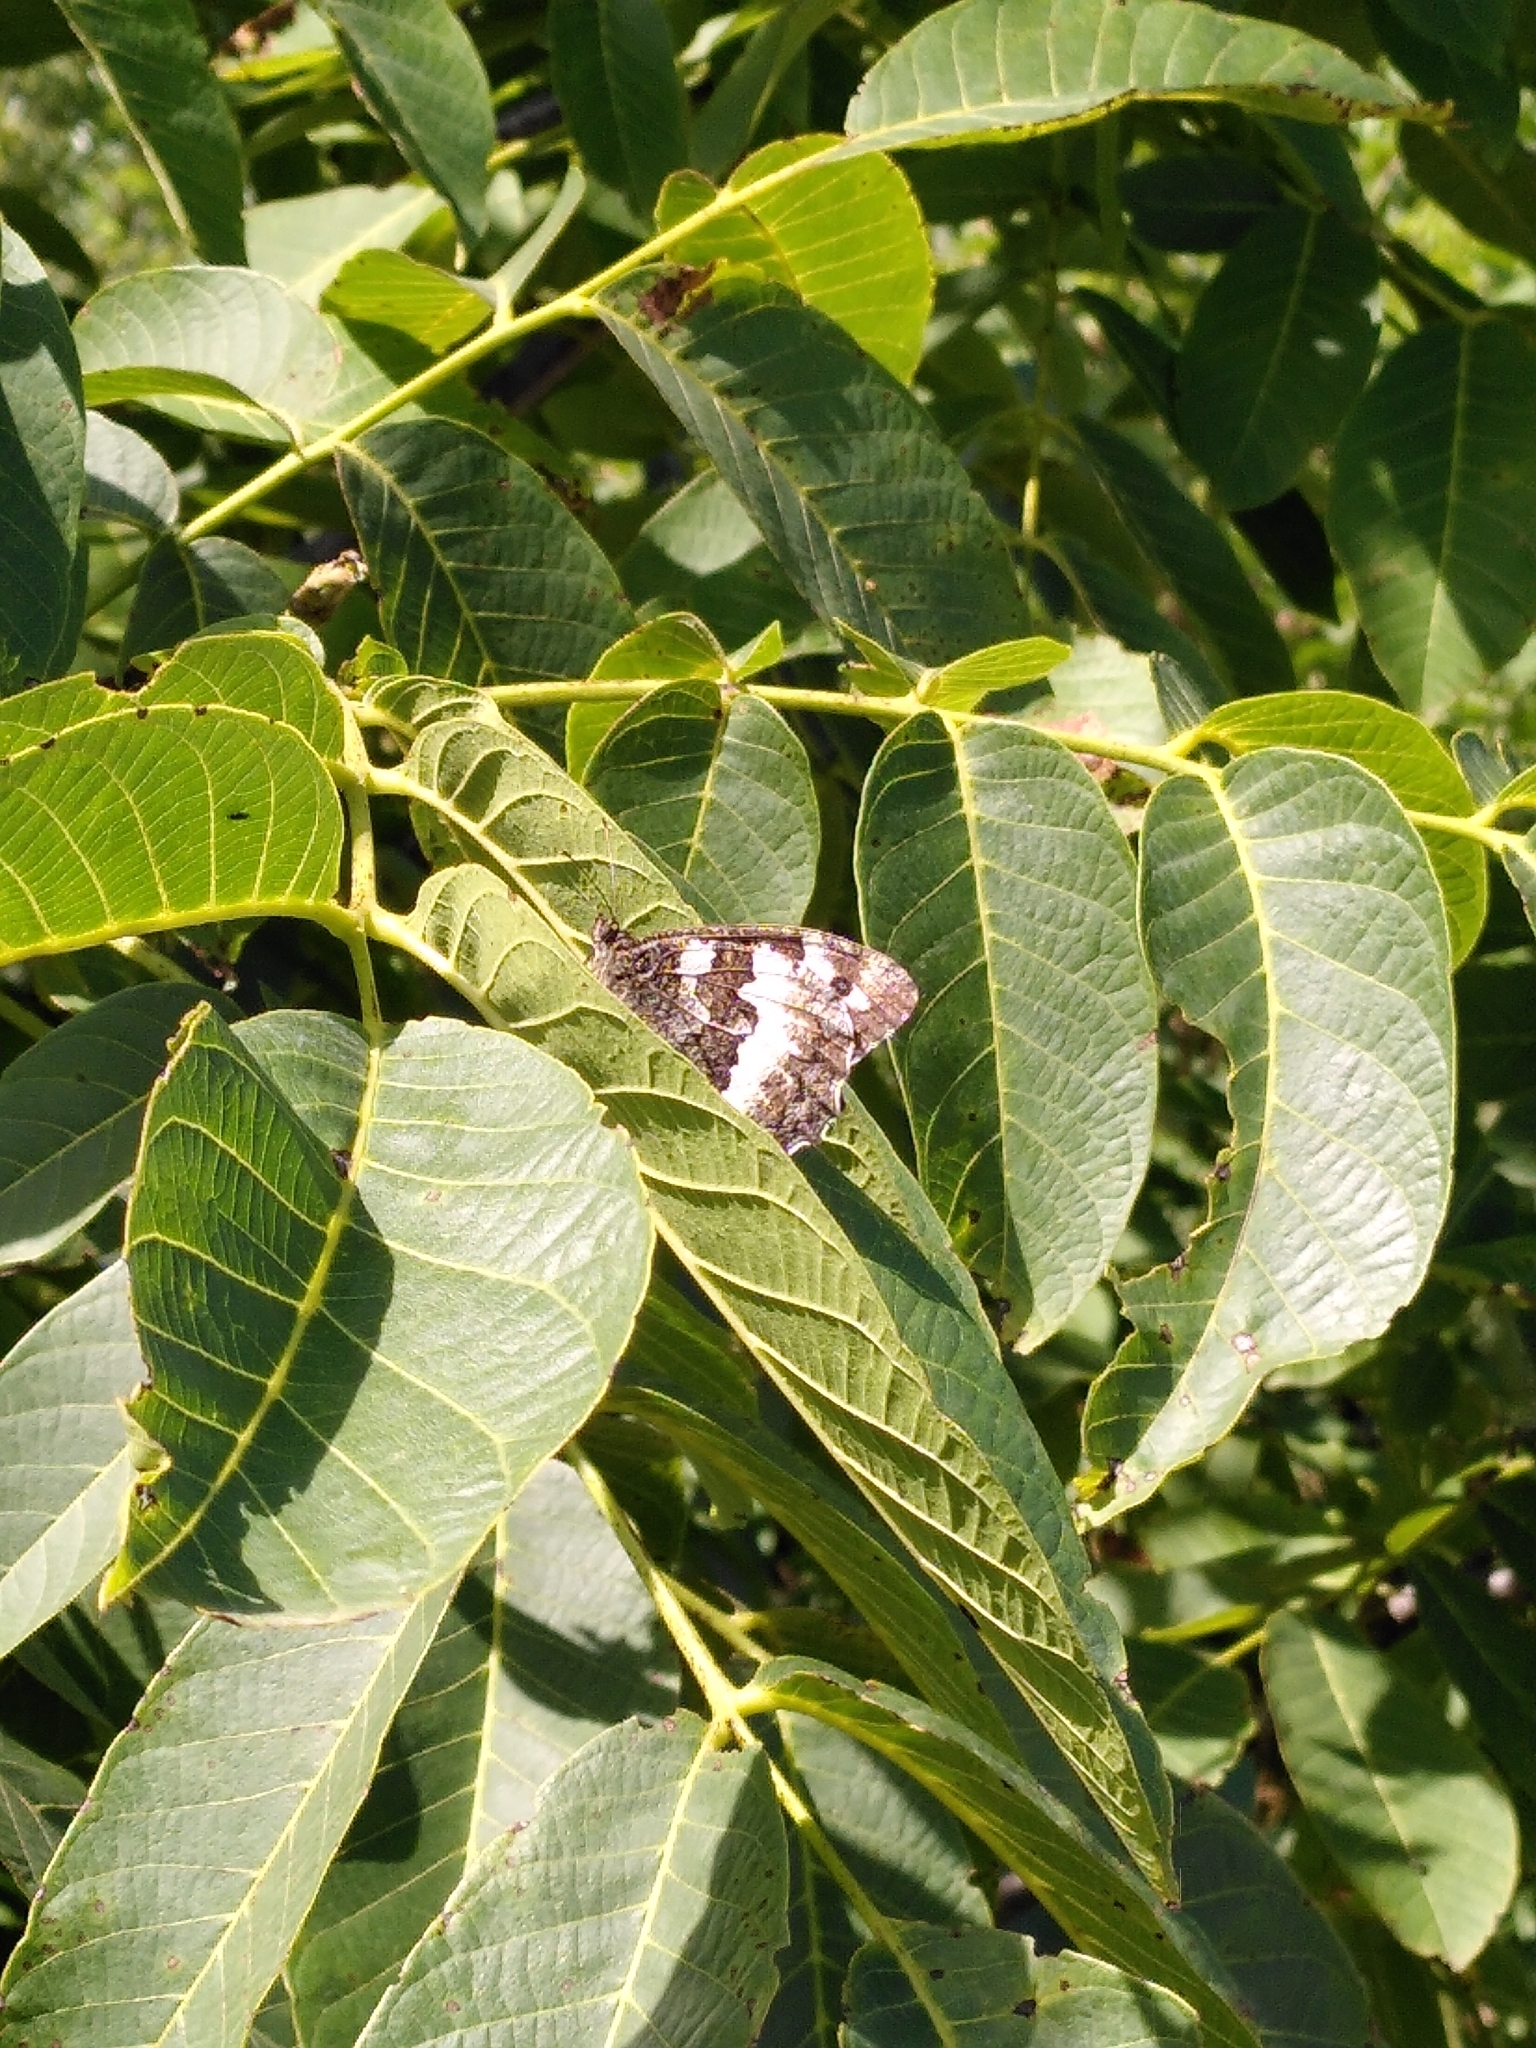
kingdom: Animalia
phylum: Arthropoda
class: Insecta
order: Lepidoptera
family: Lycaenidae
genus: Loweia
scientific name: Loweia tityrus
